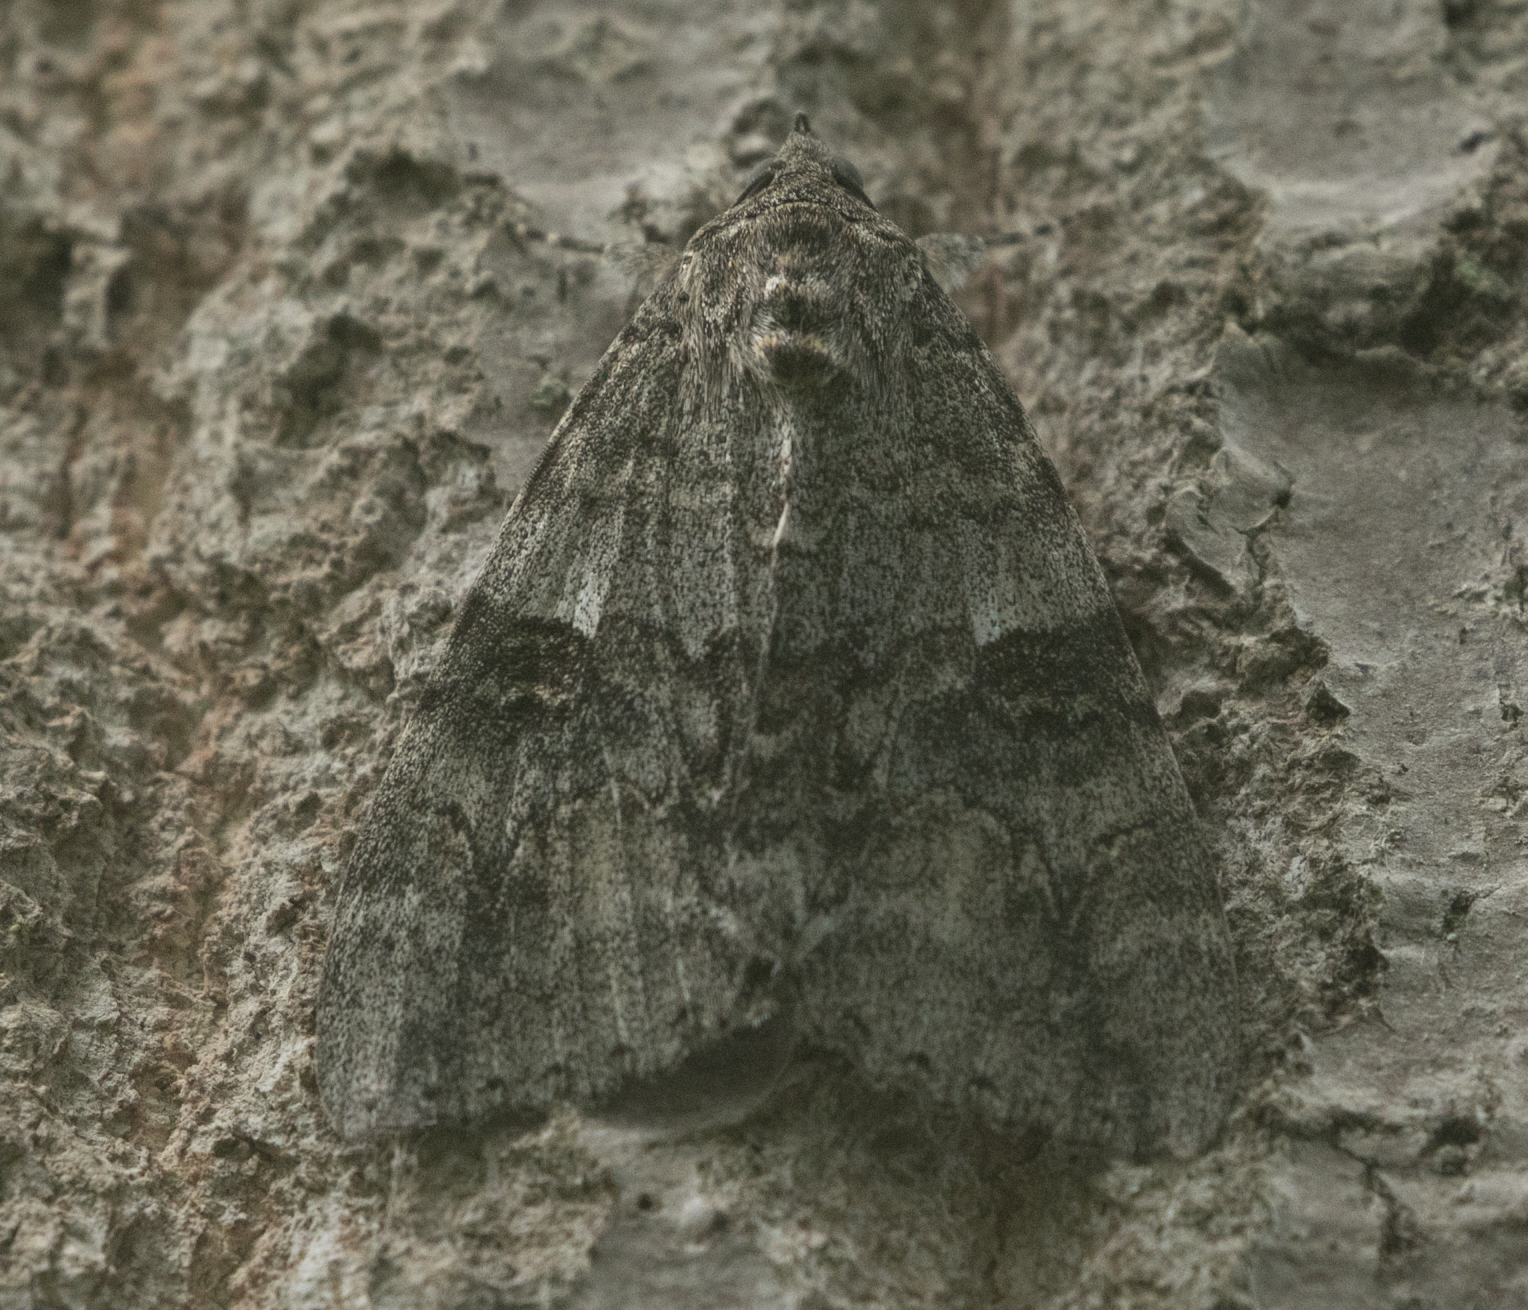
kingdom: Animalia
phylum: Arthropoda
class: Insecta
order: Lepidoptera
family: Erebidae
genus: Catocala
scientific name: Catocala nupta
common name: Red underwing
